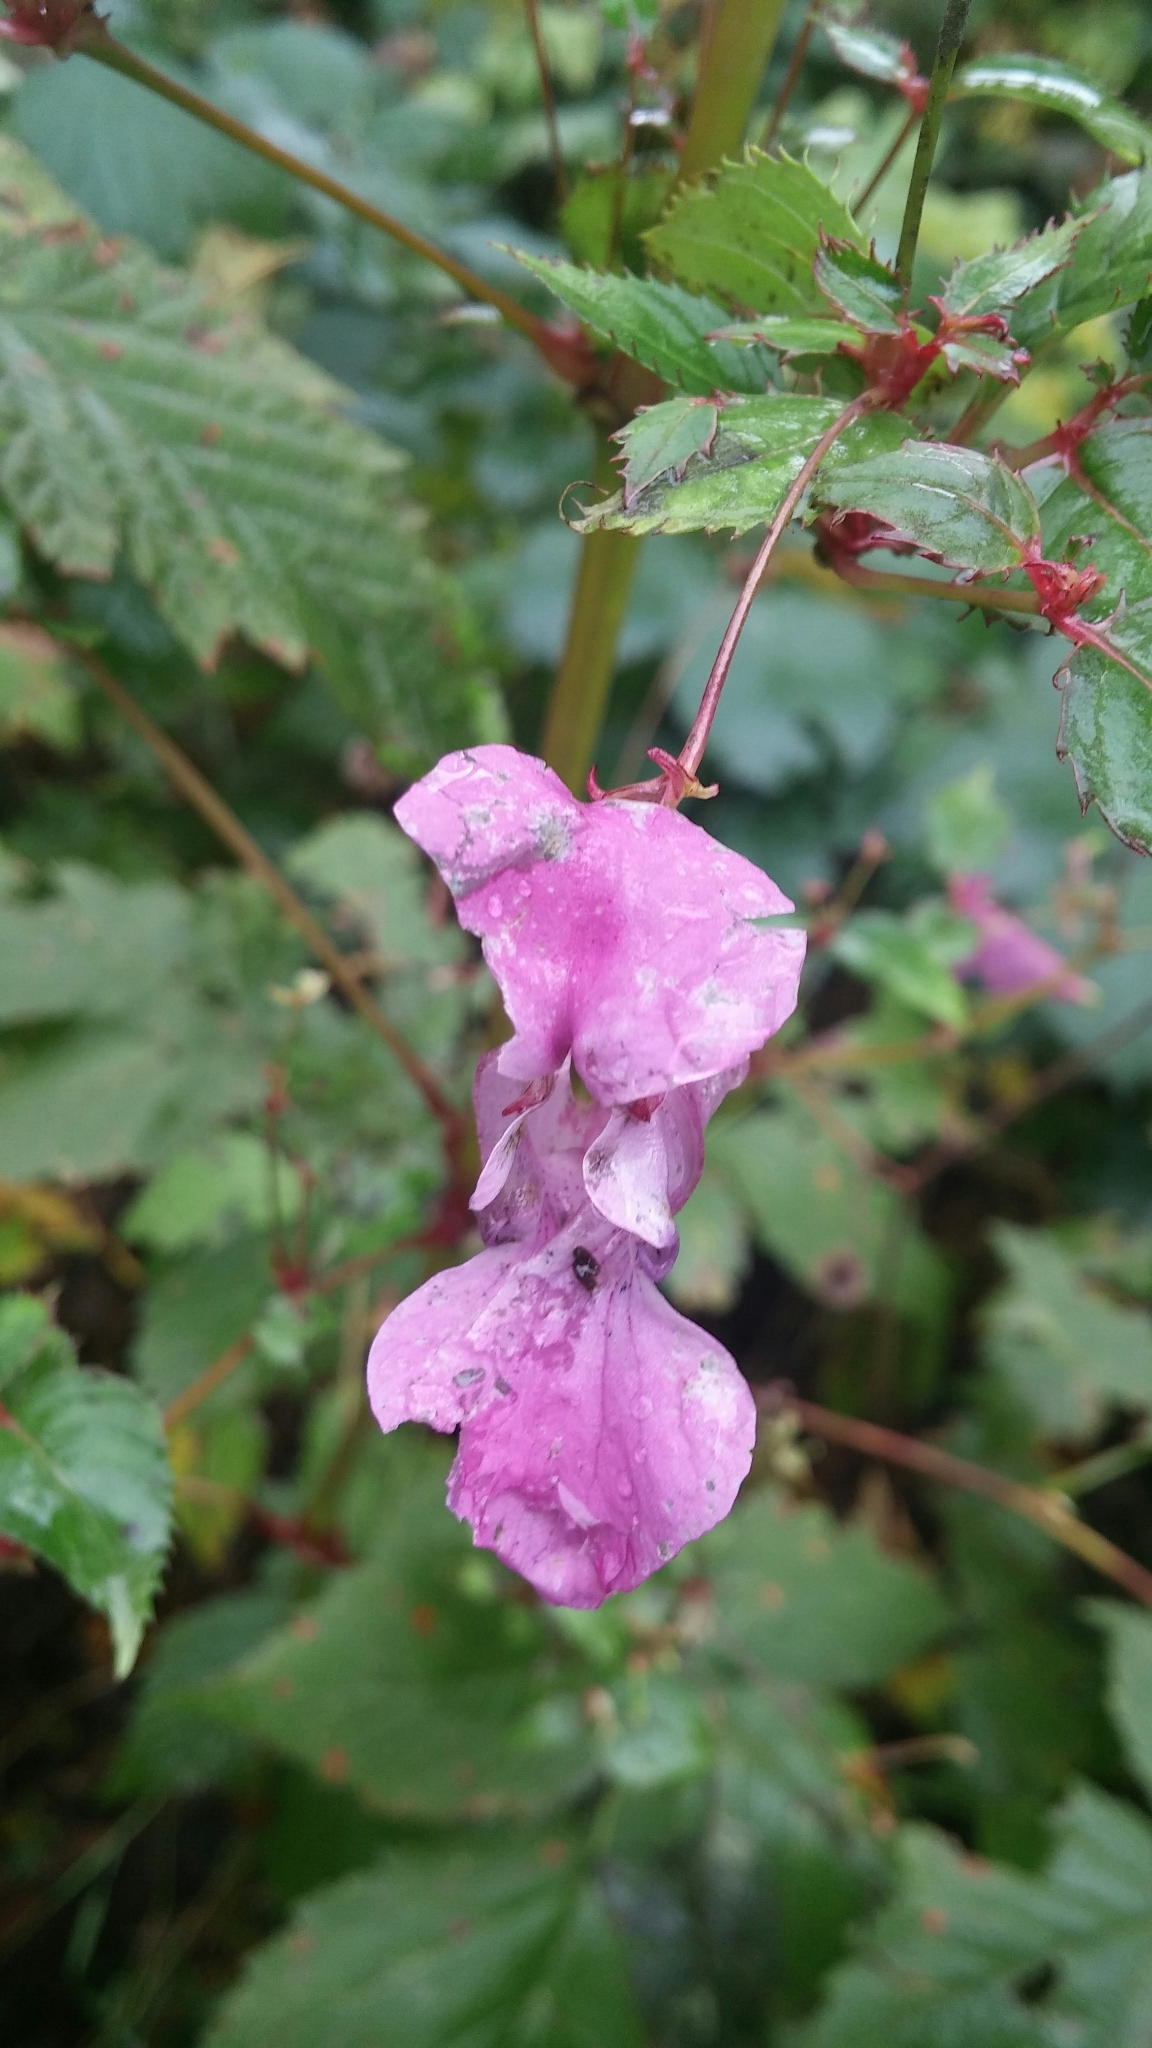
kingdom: Plantae
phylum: Tracheophyta
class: Magnoliopsida
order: Ericales
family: Balsaminaceae
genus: Impatiens
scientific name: Impatiens glandulifera
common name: Himalayan balsam
